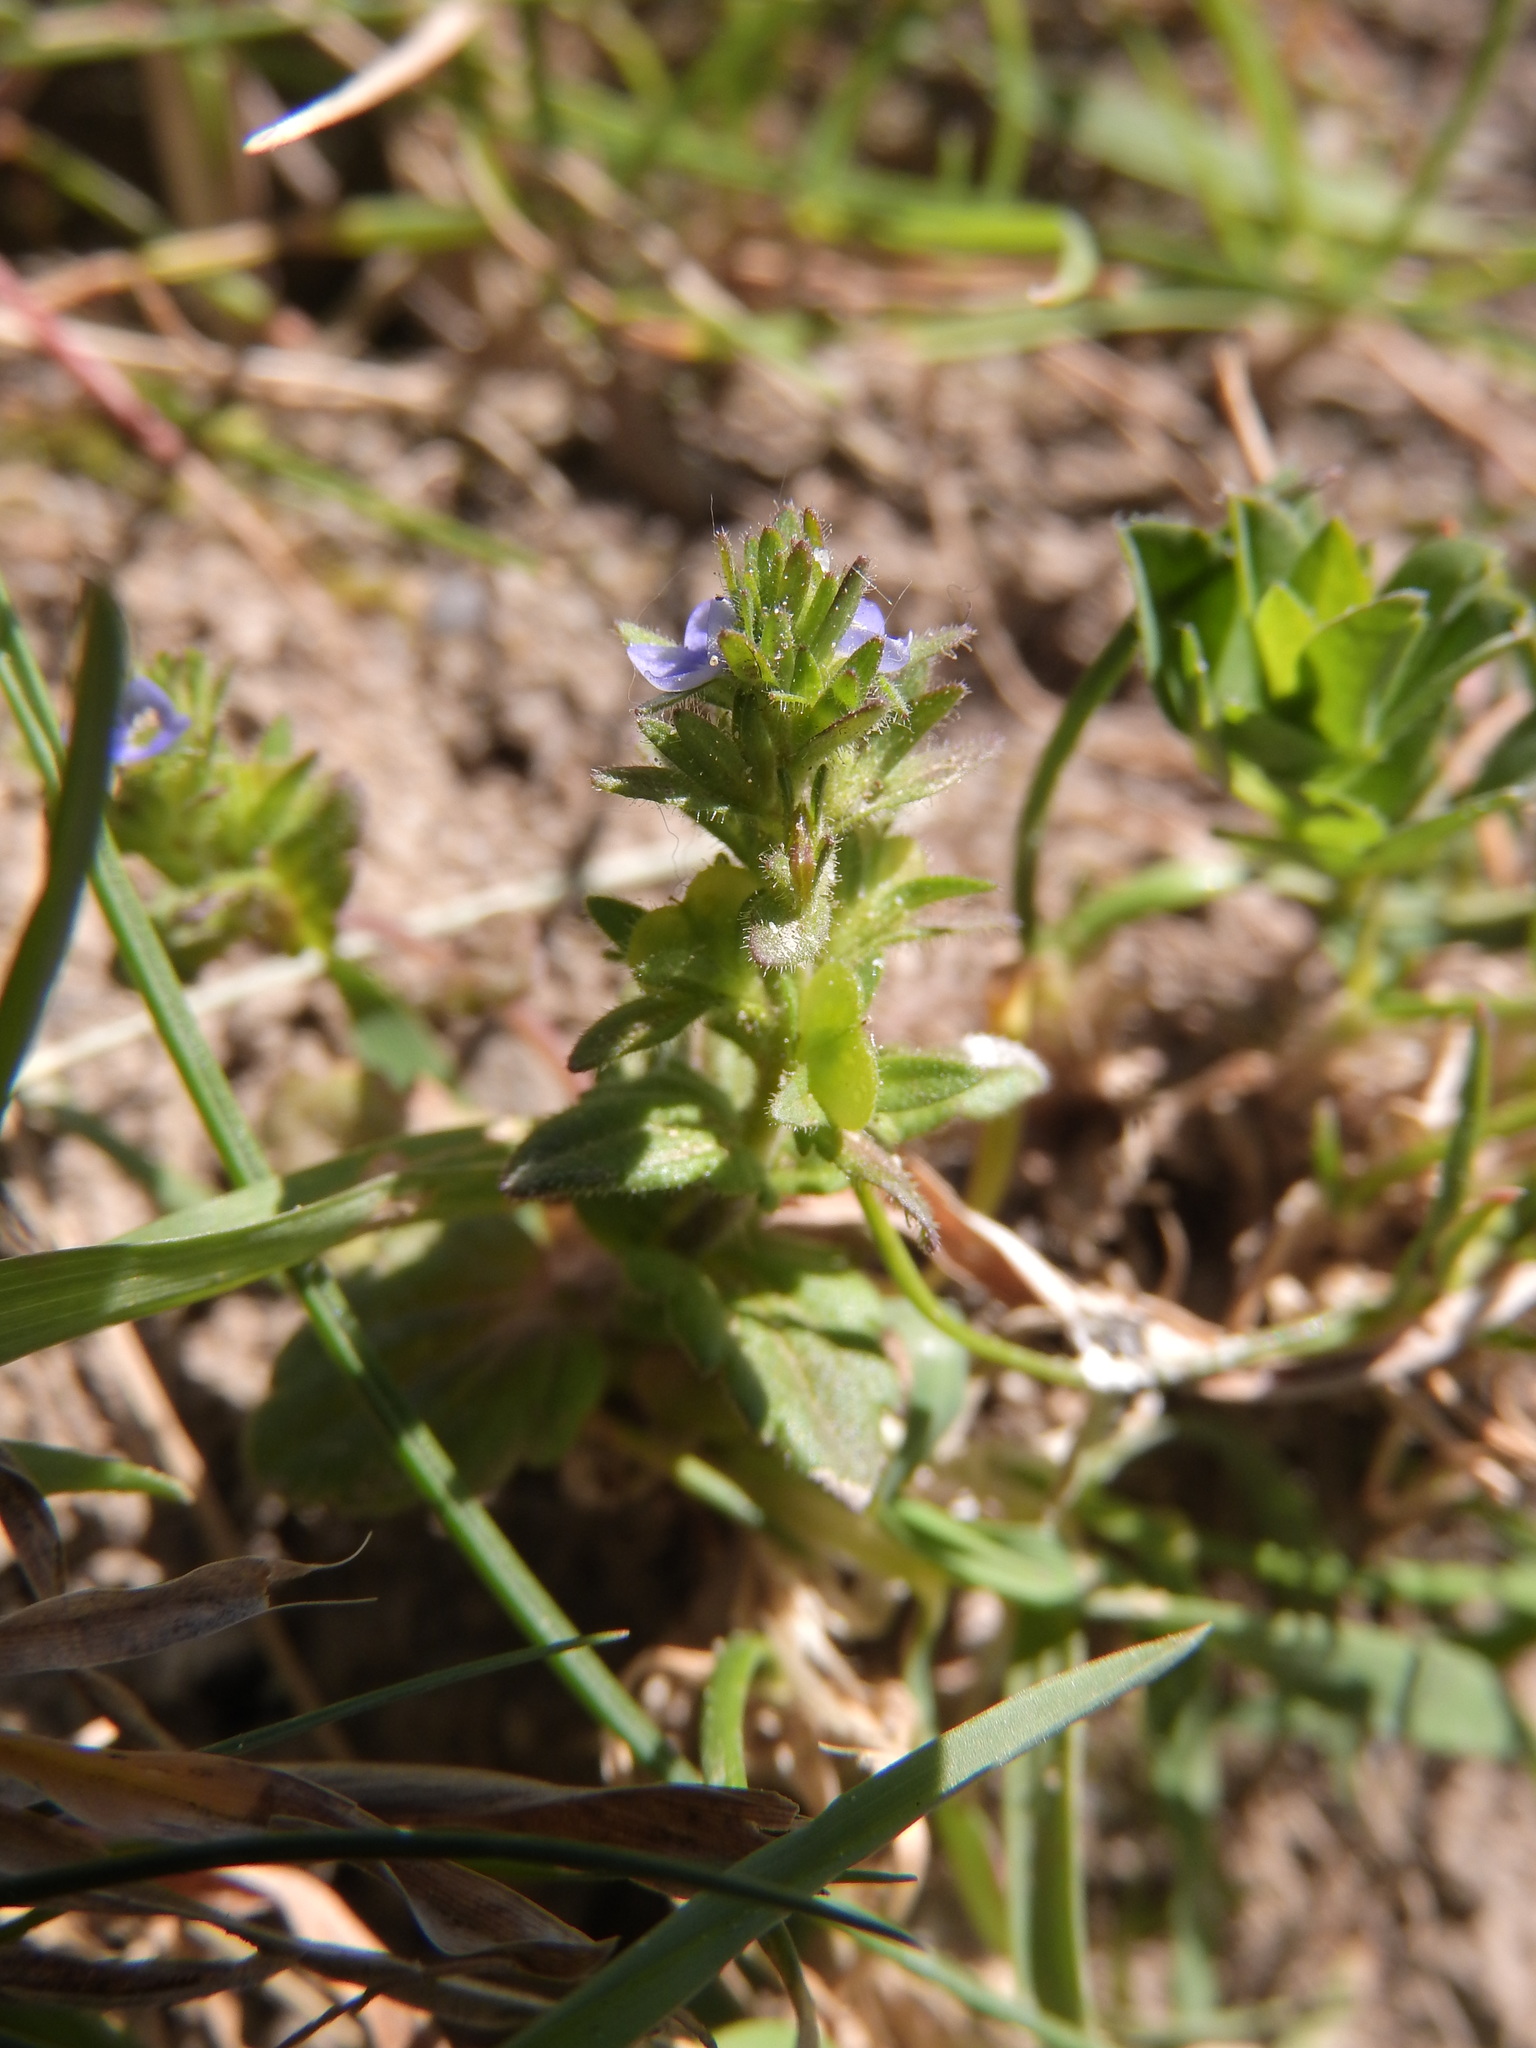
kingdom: Plantae
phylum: Tracheophyta
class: Magnoliopsida
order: Lamiales
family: Plantaginaceae
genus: Veronica
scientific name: Veronica arvensis
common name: Corn speedwell
